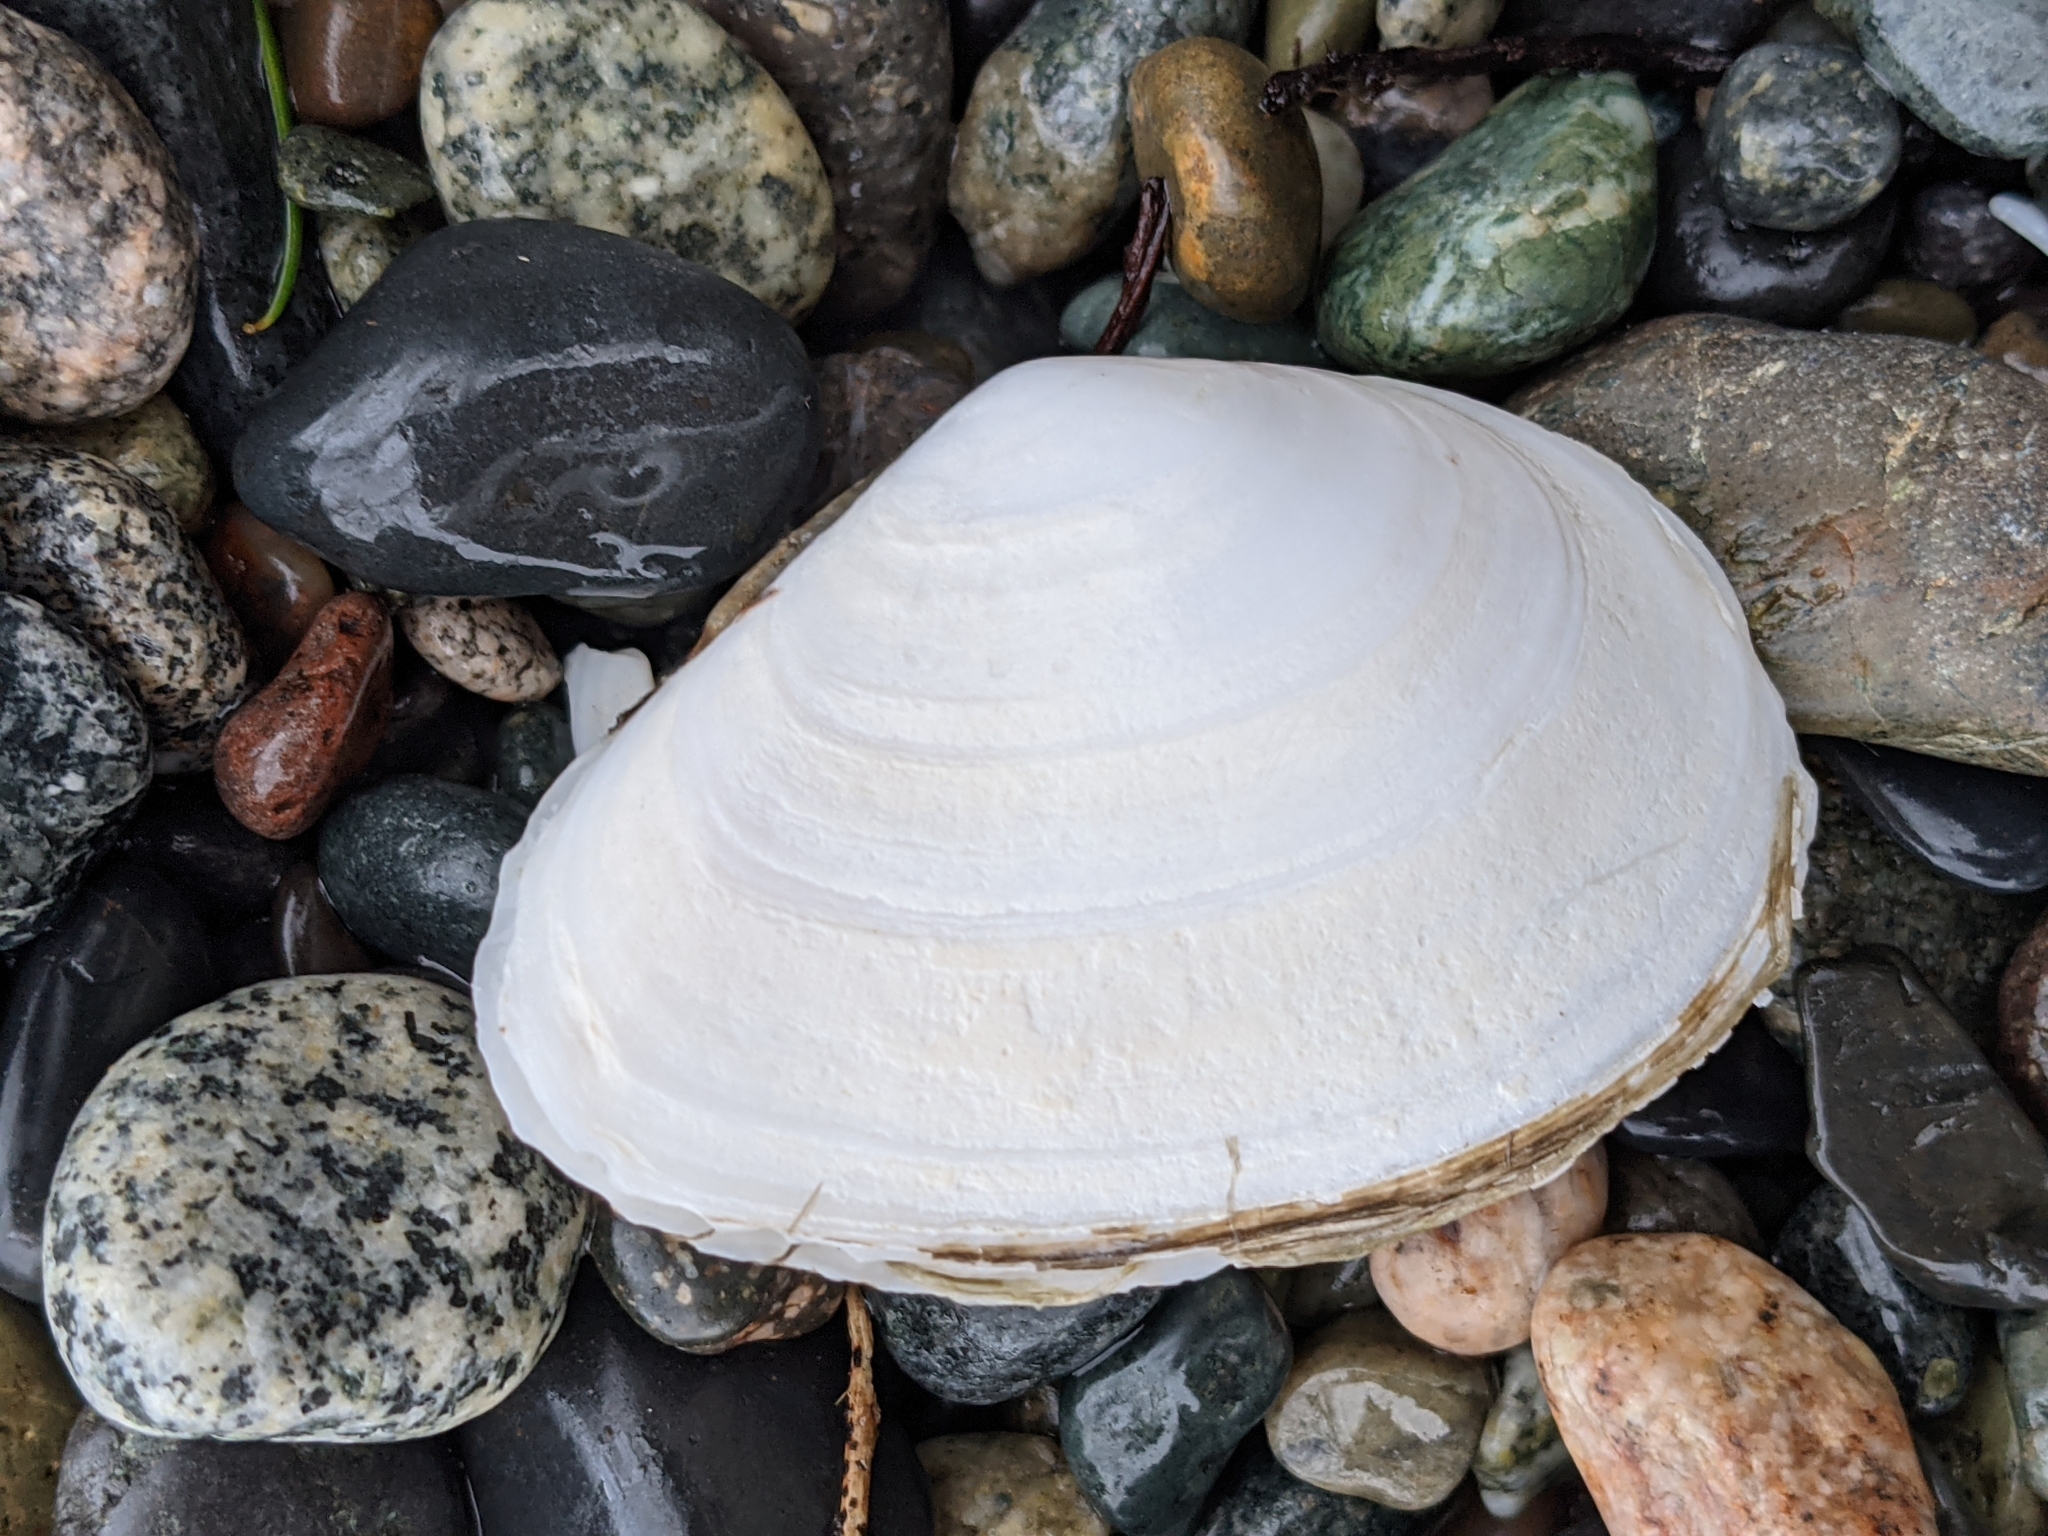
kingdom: Animalia
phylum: Mollusca
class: Bivalvia
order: Cardiida
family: Tellinidae
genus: Macoma
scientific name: Macoma nasuta
